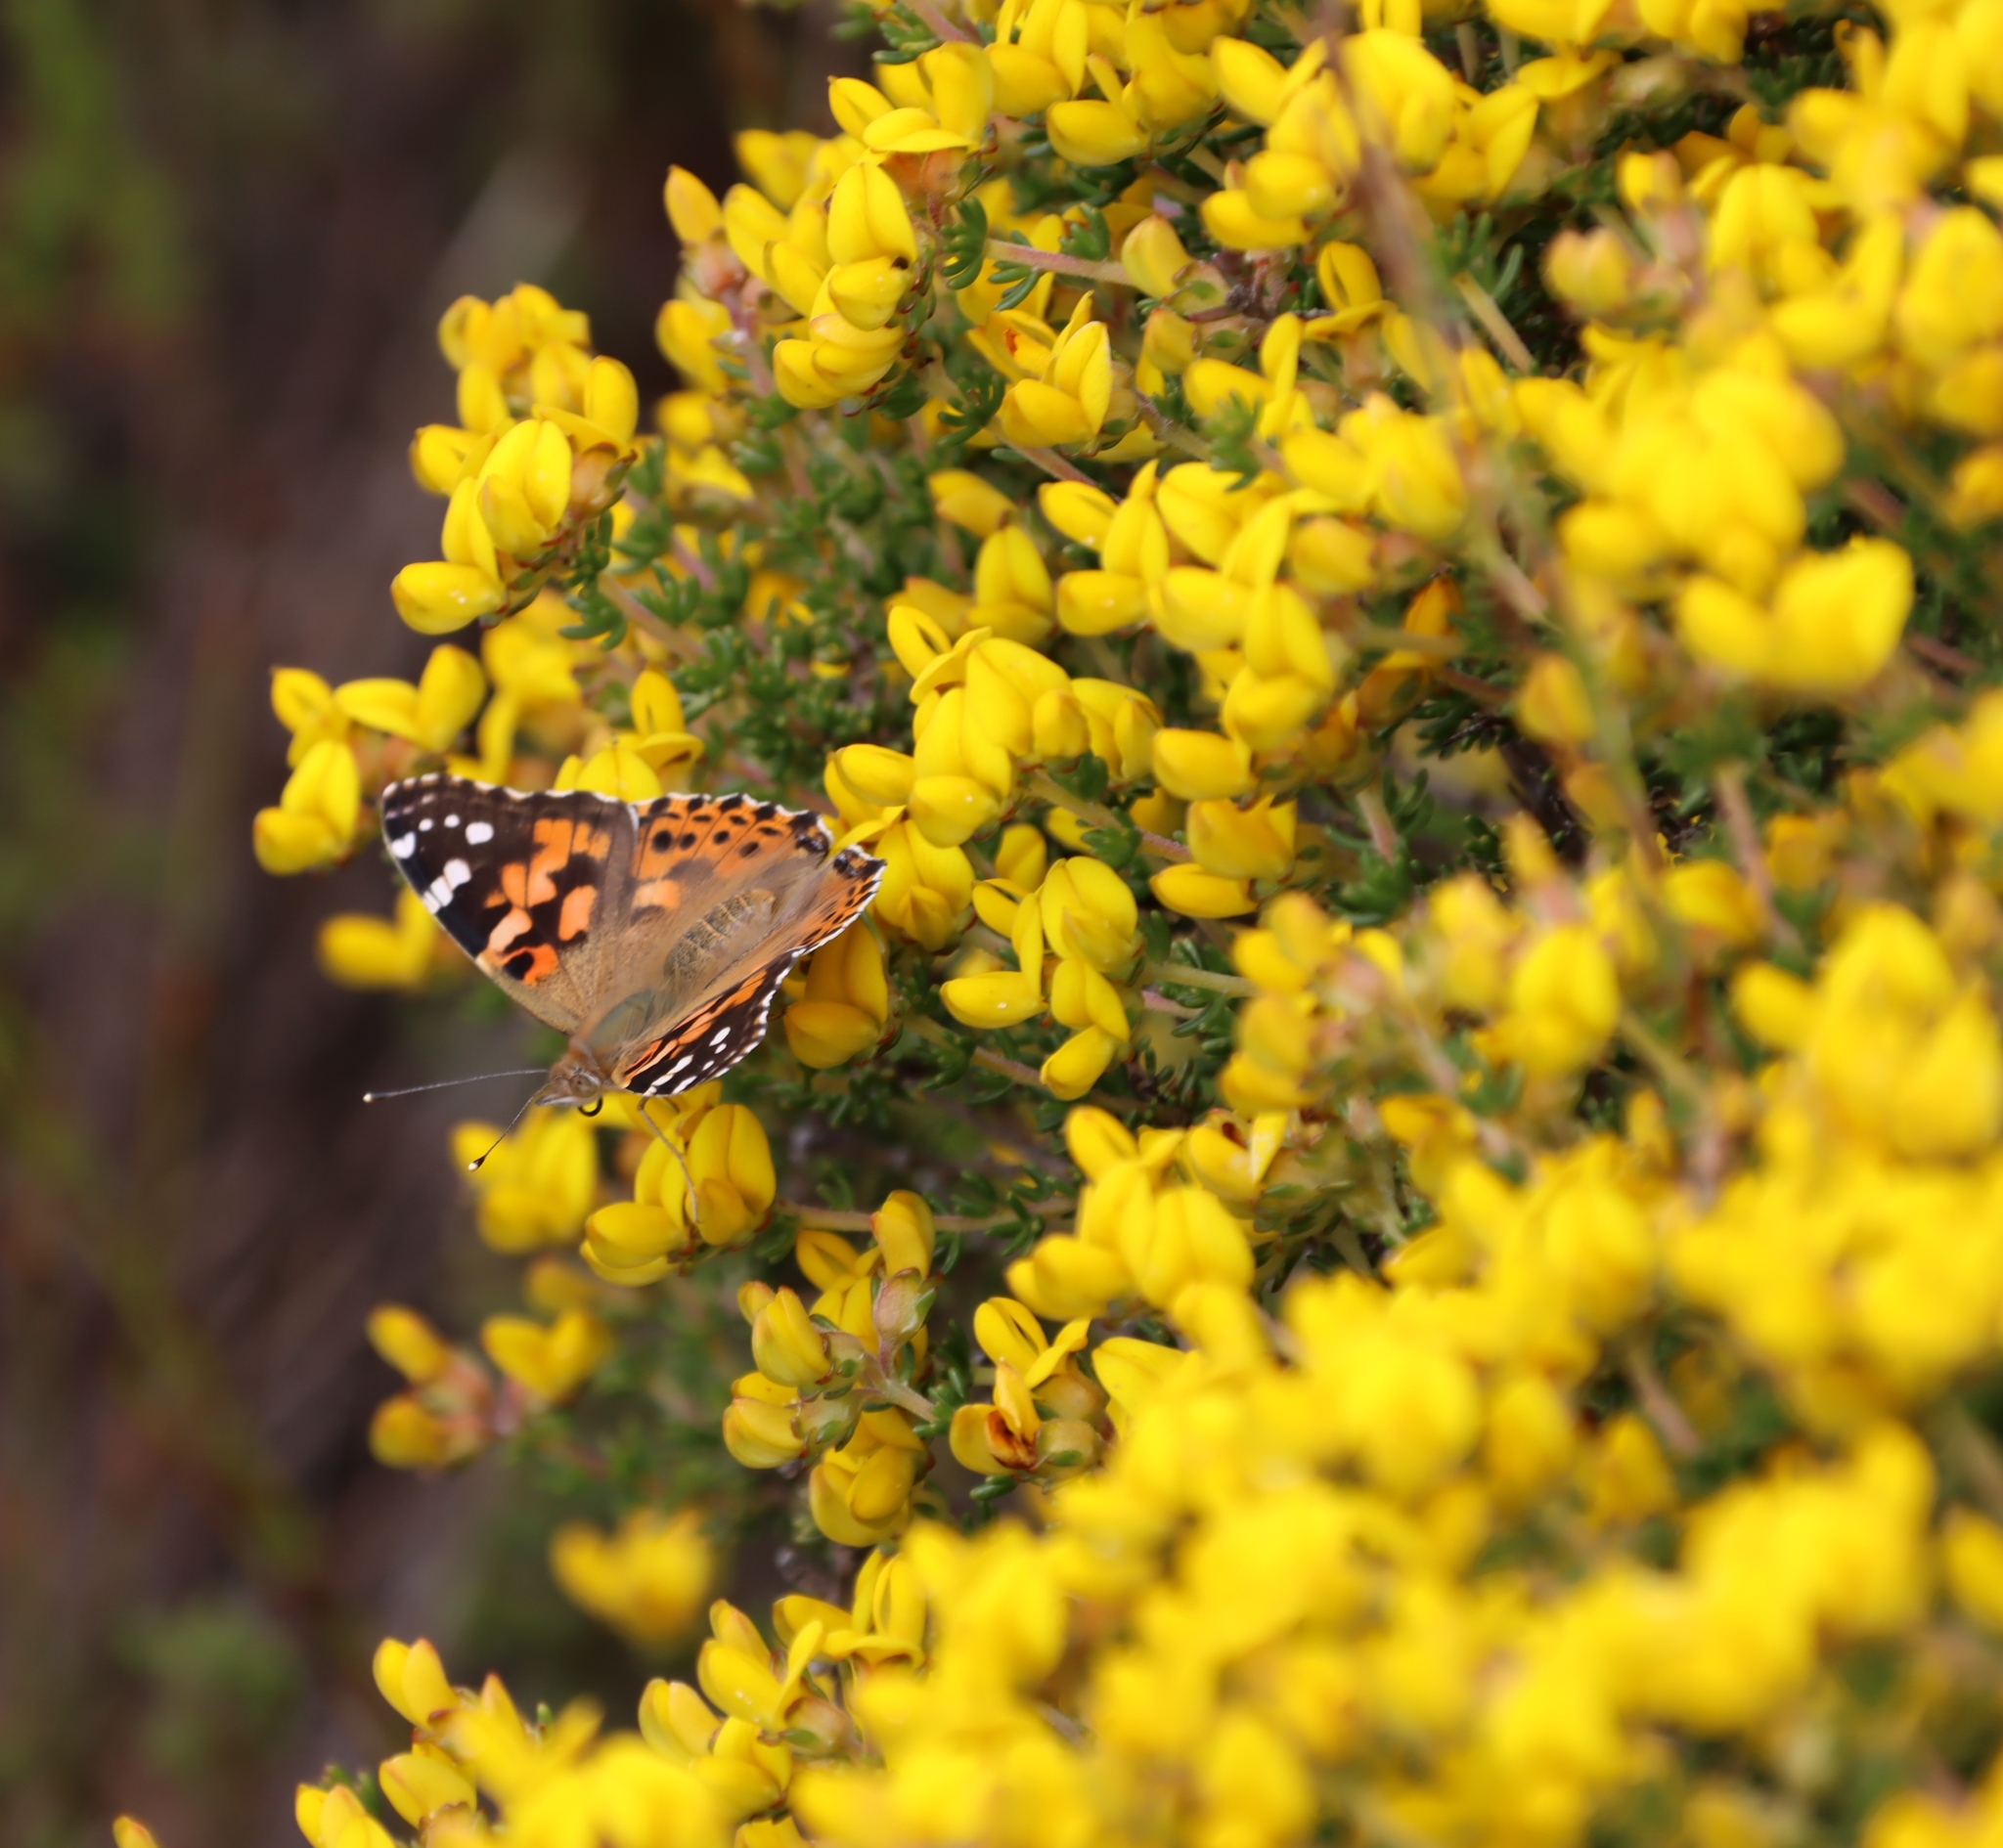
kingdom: Animalia
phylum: Arthropoda
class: Insecta
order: Lepidoptera
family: Nymphalidae
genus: Vanessa
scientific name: Vanessa cardui
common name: Painted lady
